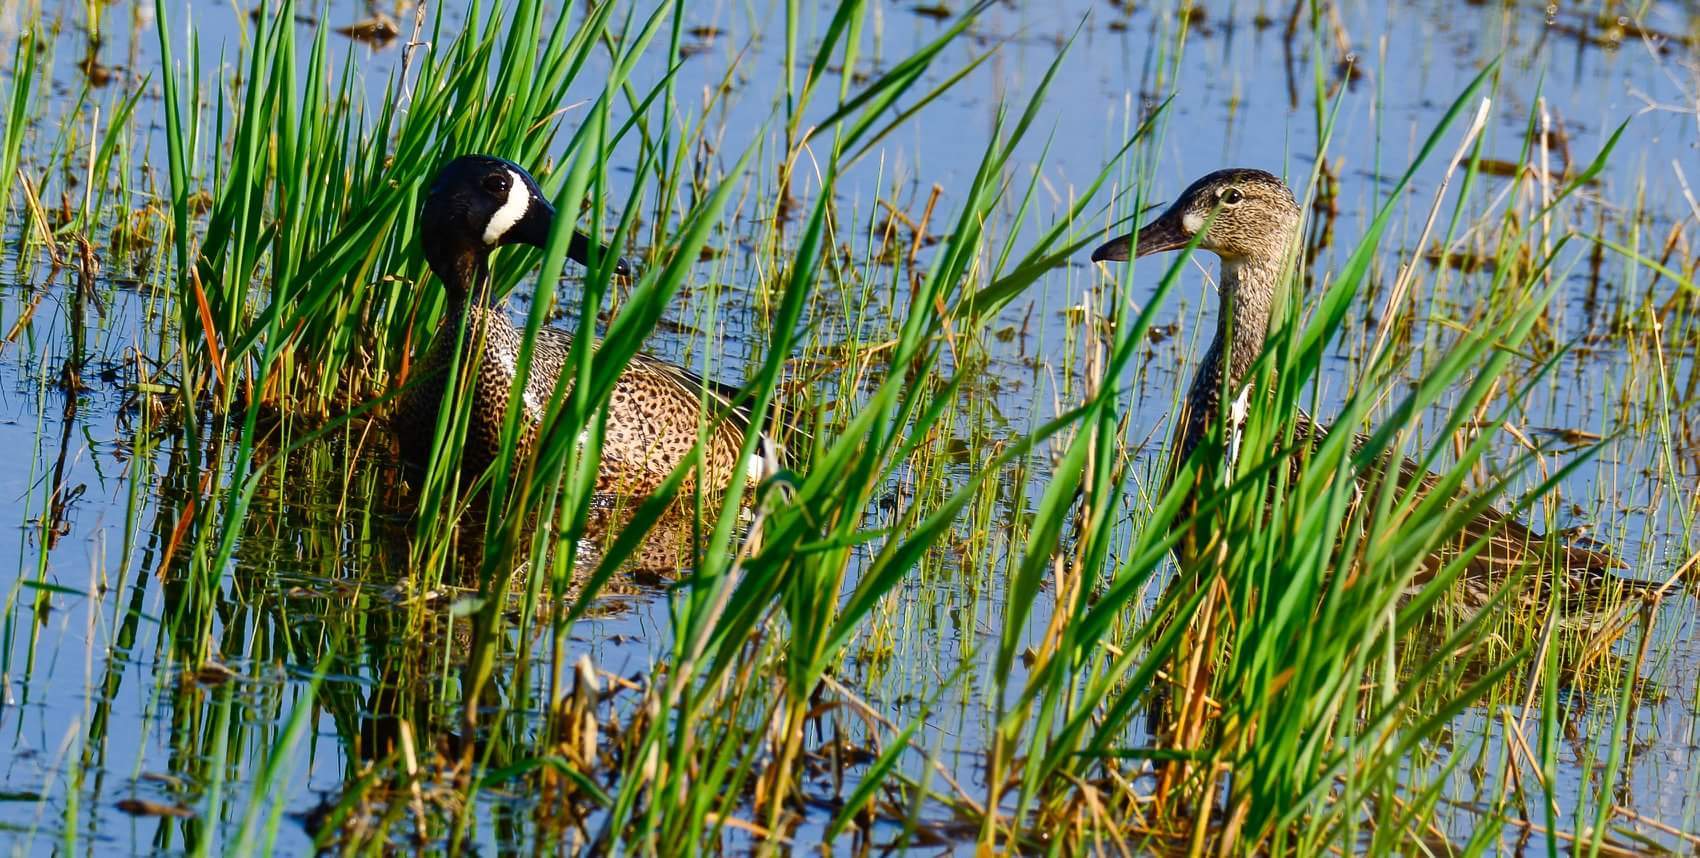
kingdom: Animalia
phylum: Chordata
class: Aves
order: Anseriformes
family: Anatidae
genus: Spatula
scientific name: Spatula discors
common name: Blue-winged teal
